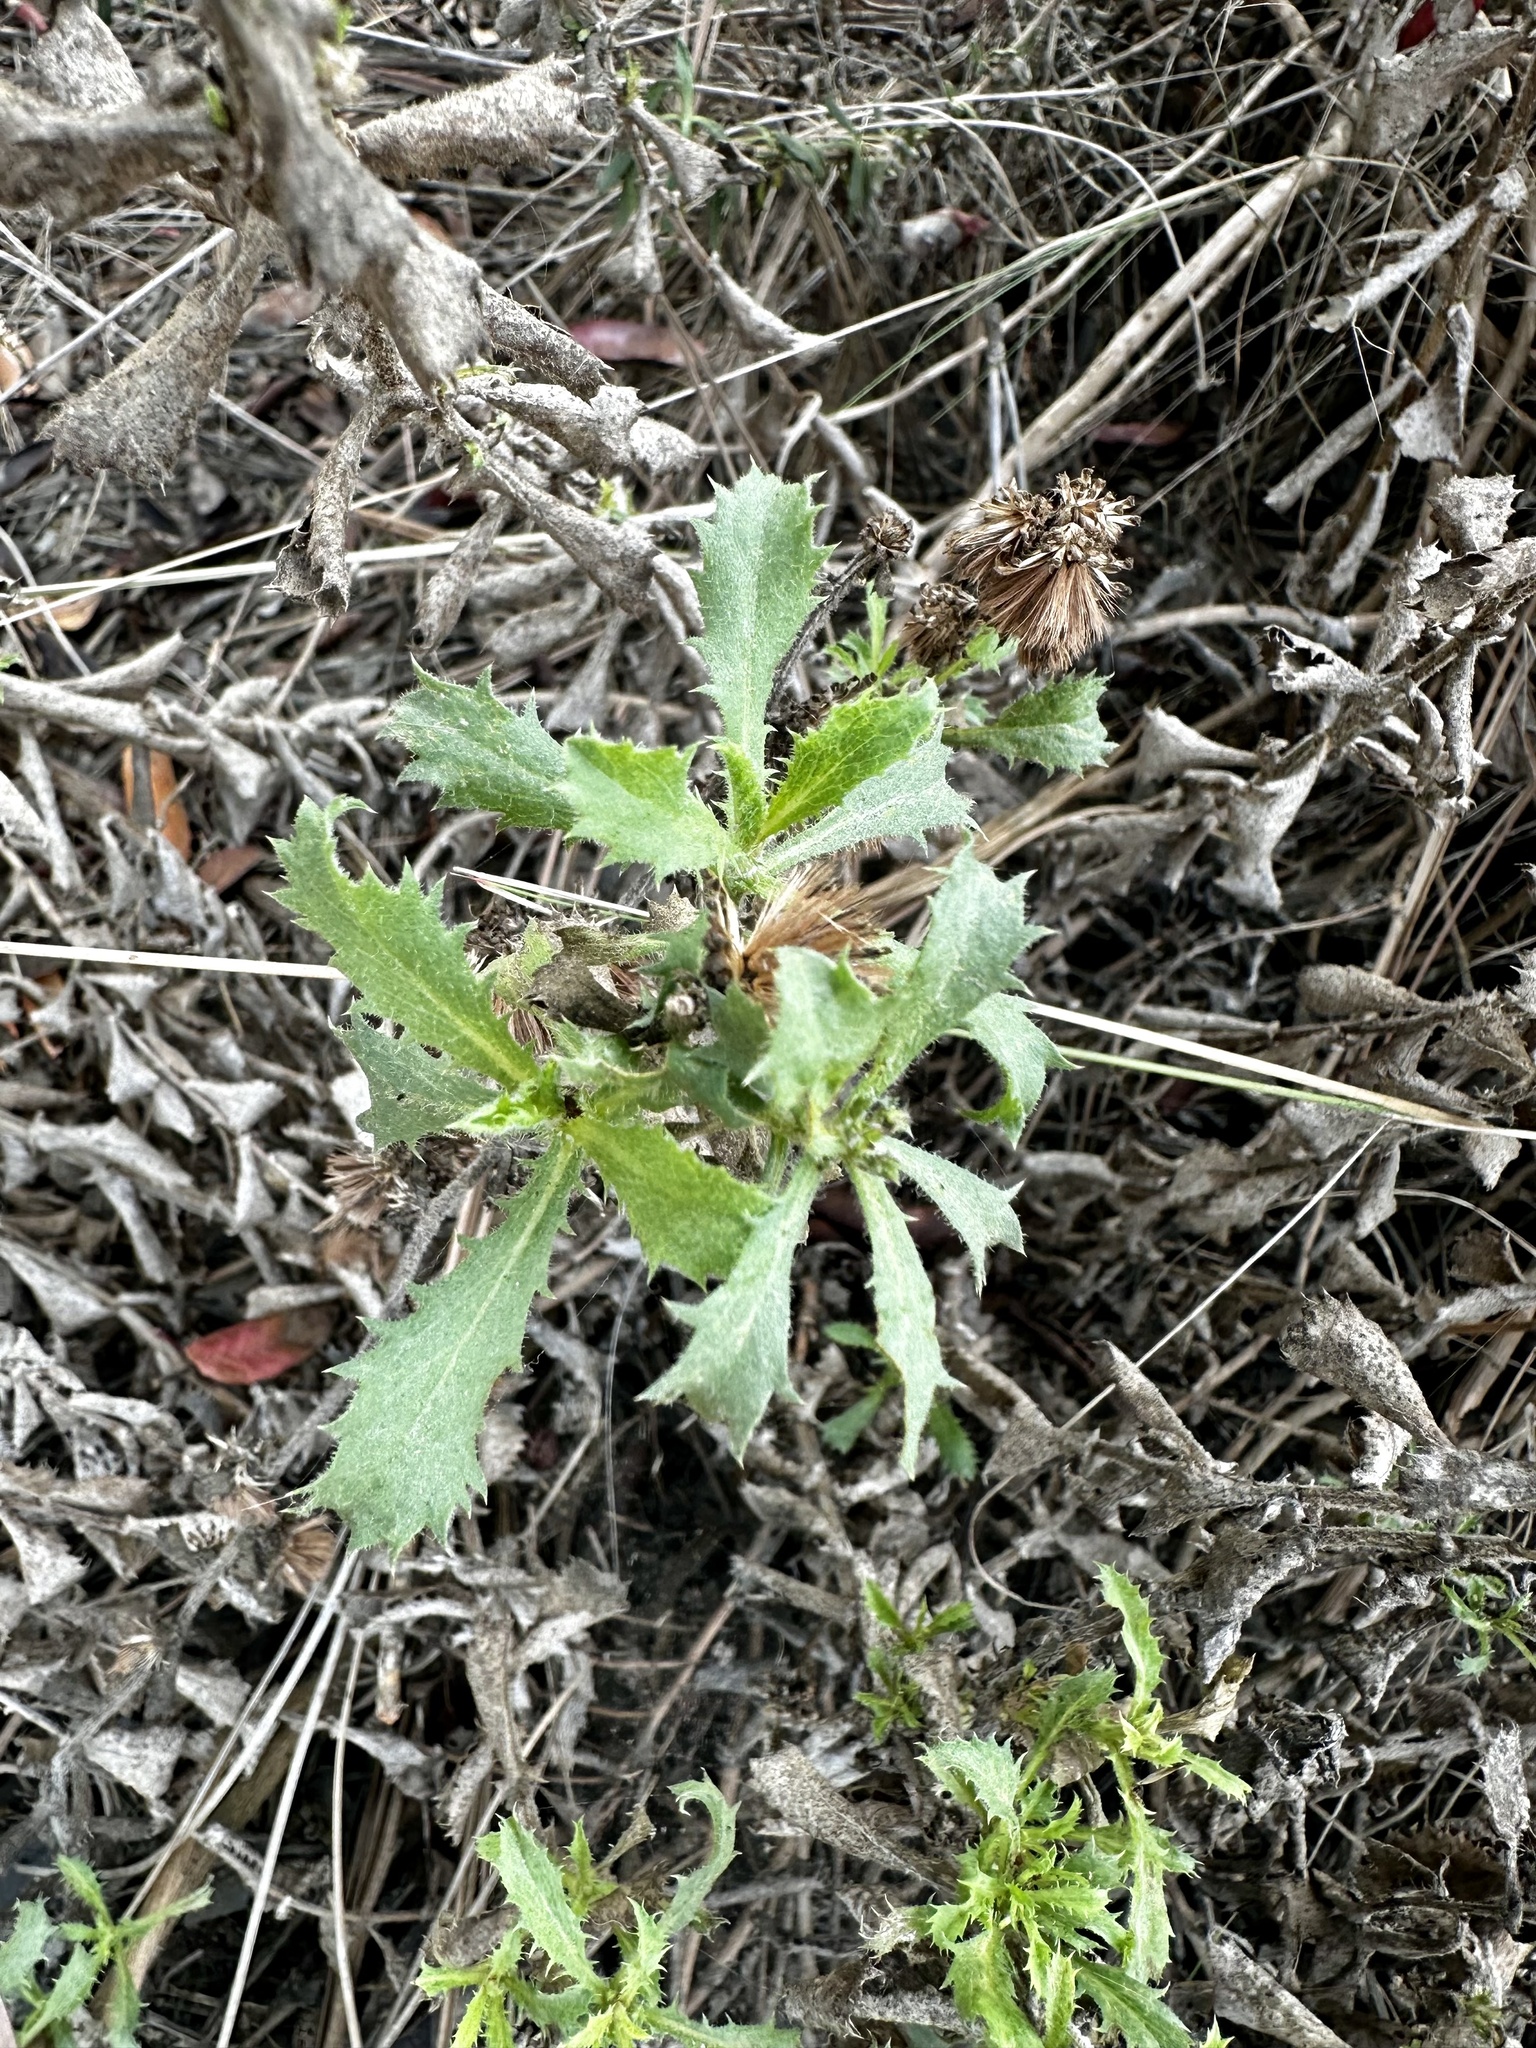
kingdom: Plantae
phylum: Tracheophyta
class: Magnoliopsida
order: Asterales
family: Asteraceae
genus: Hazardia
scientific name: Hazardia squarrosa
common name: Saw-tooth goldenbush
